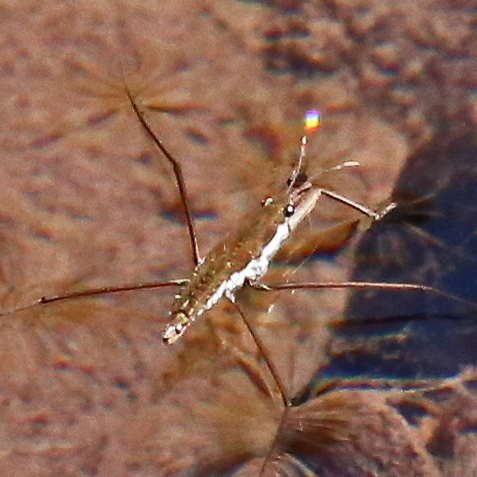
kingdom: Animalia
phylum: Arthropoda
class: Insecta
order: Hemiptera
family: Gerridae
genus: Aquarius
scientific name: Aquarius
